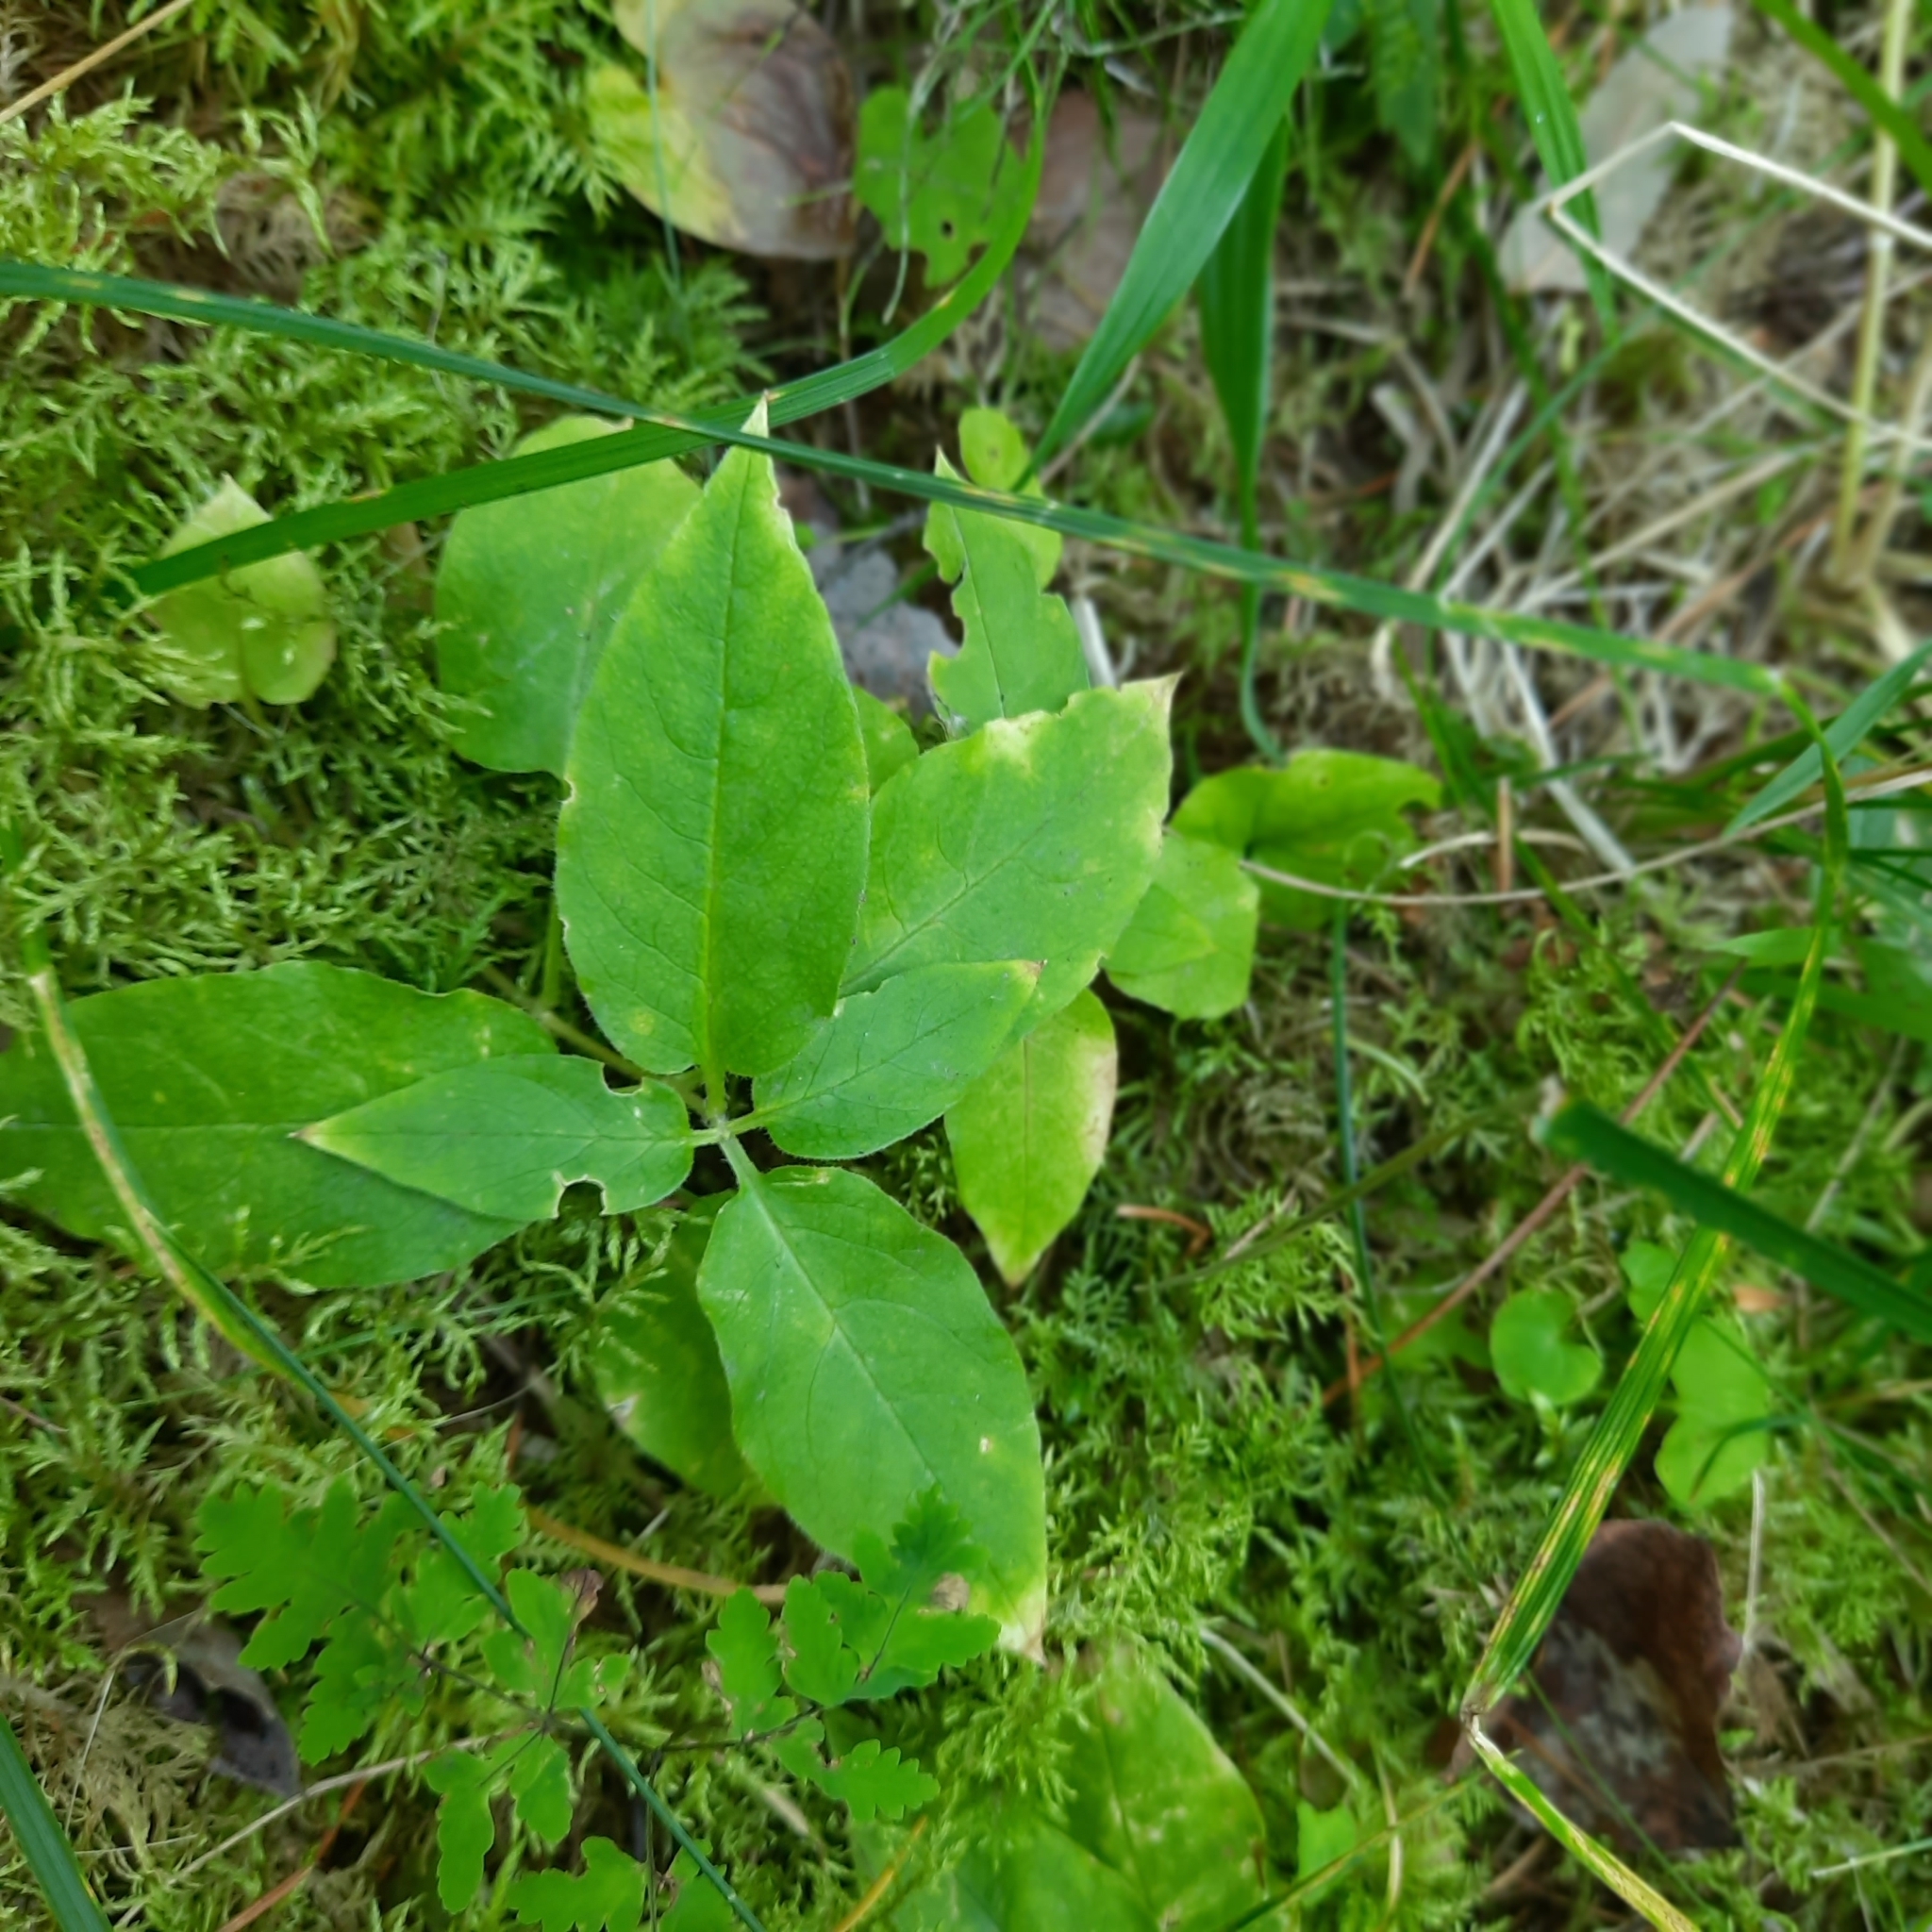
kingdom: Plantae
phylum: Tracheophyta
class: Magnoliopsida
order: Caryophyllales
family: Caryophyllaceae
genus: Stellaria
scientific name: Stellaria bungeana
